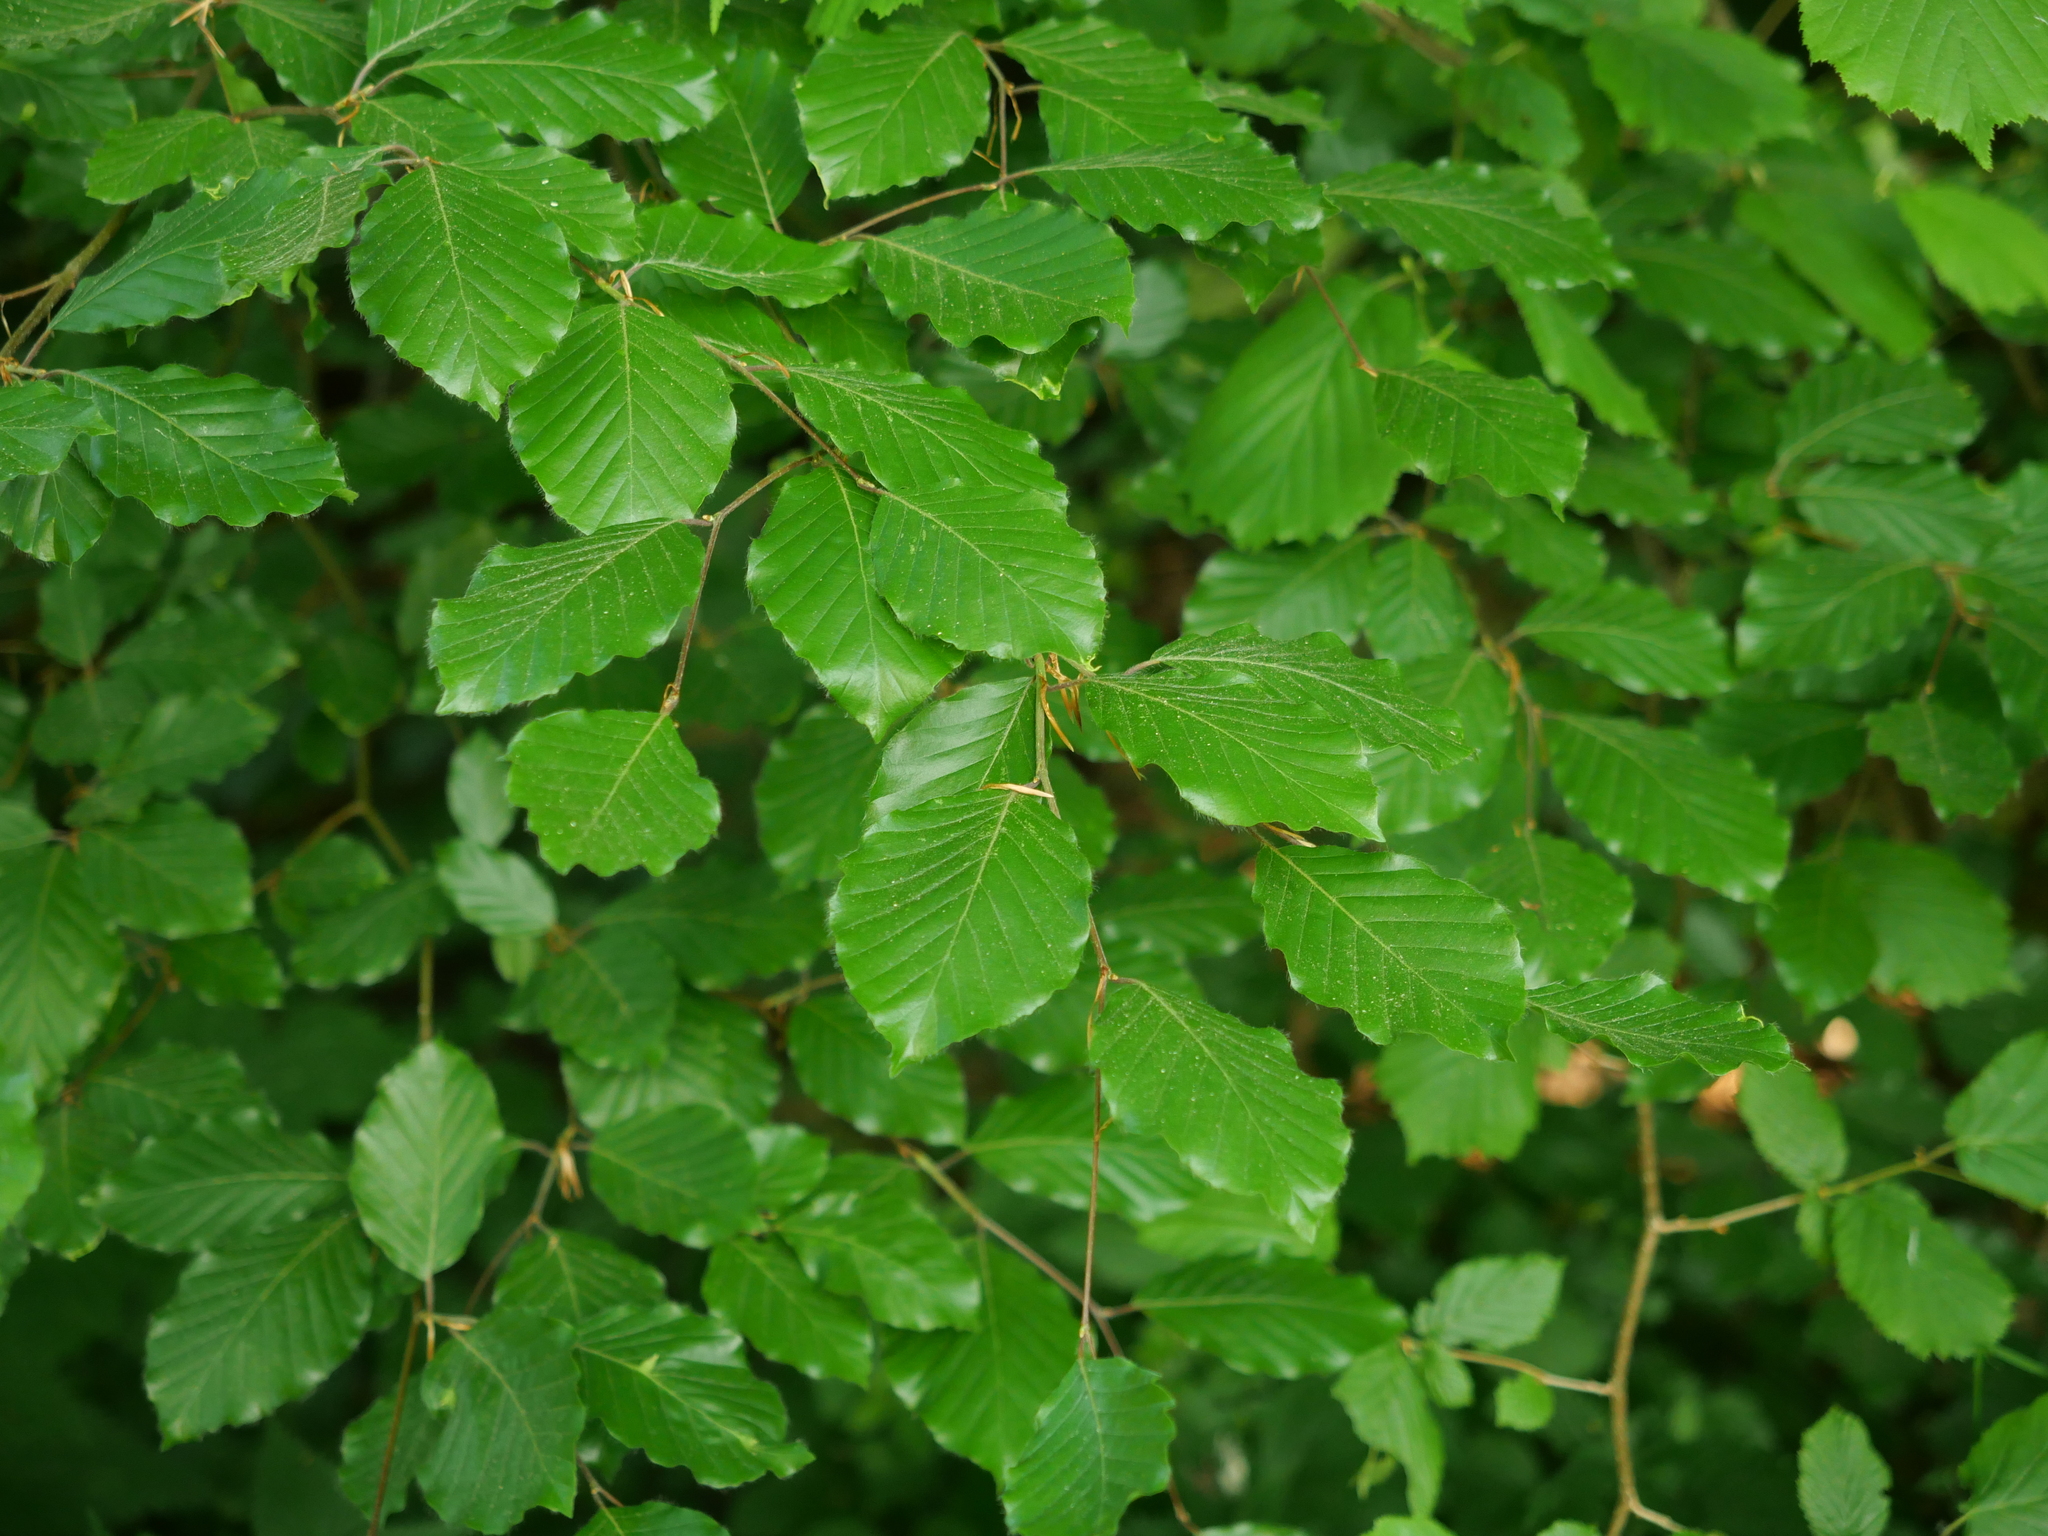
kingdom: Plantae
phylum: Tracheophyta
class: Magnoliopsida
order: Fagales
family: Fagaceae
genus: Fagus
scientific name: Fagus sylvatica
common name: Beech
